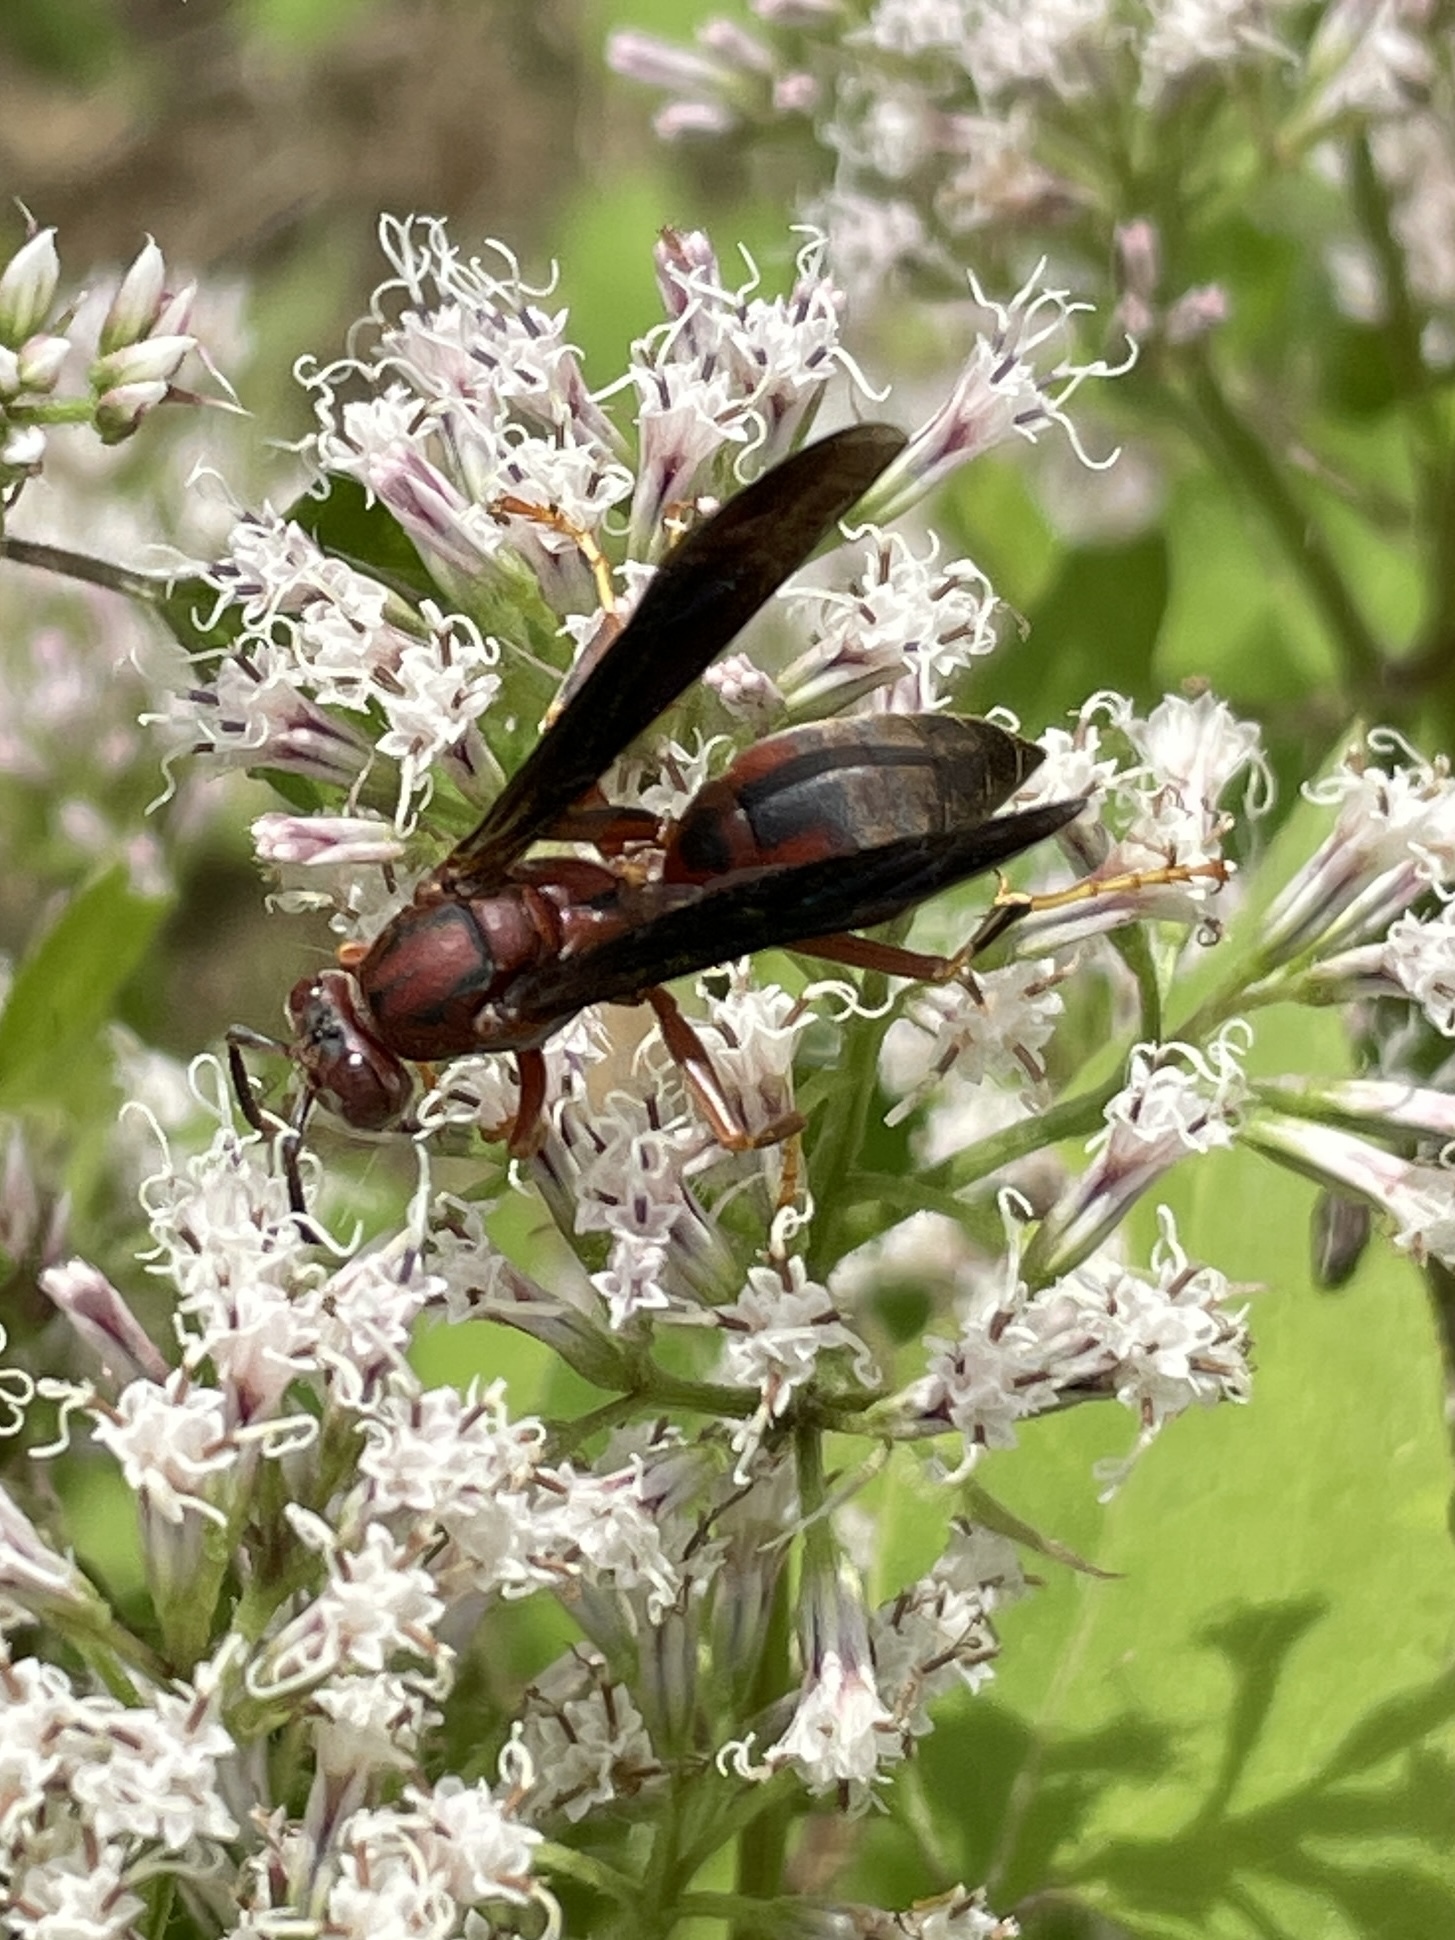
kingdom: Animalia
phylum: Arthropoda
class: Insecta
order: Hymenoptera
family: Eumenidae
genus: Polistes
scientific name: Polistes metricus
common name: Metric paper wasp
